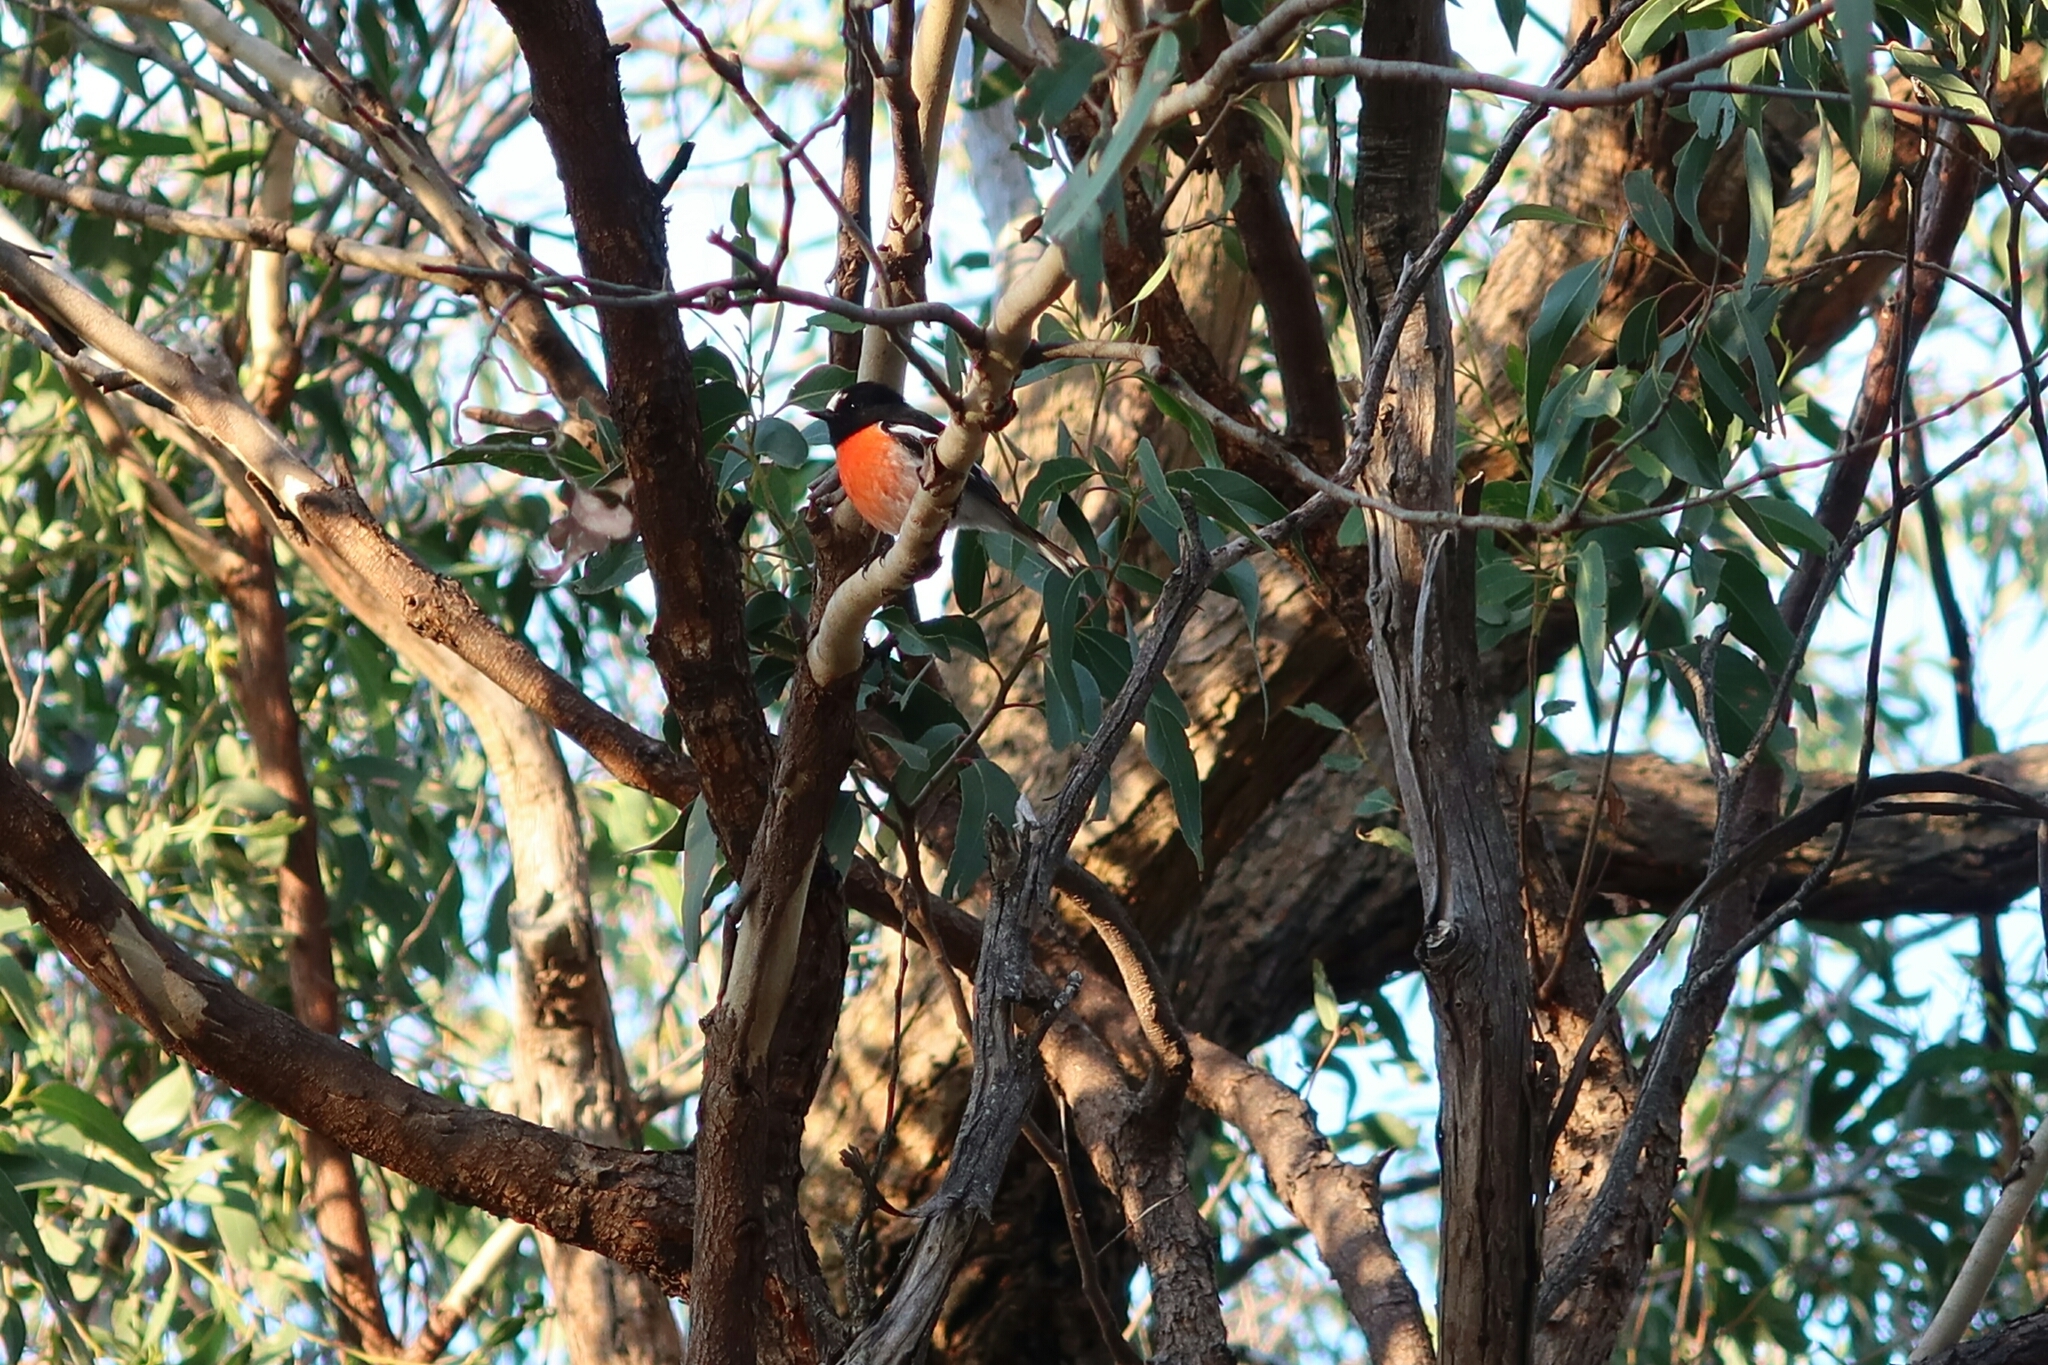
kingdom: Animalia
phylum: Chordata
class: Aves
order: Passeriformes
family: Petroicidae
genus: Petroica
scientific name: Petroica boodang
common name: Scarlet robin
